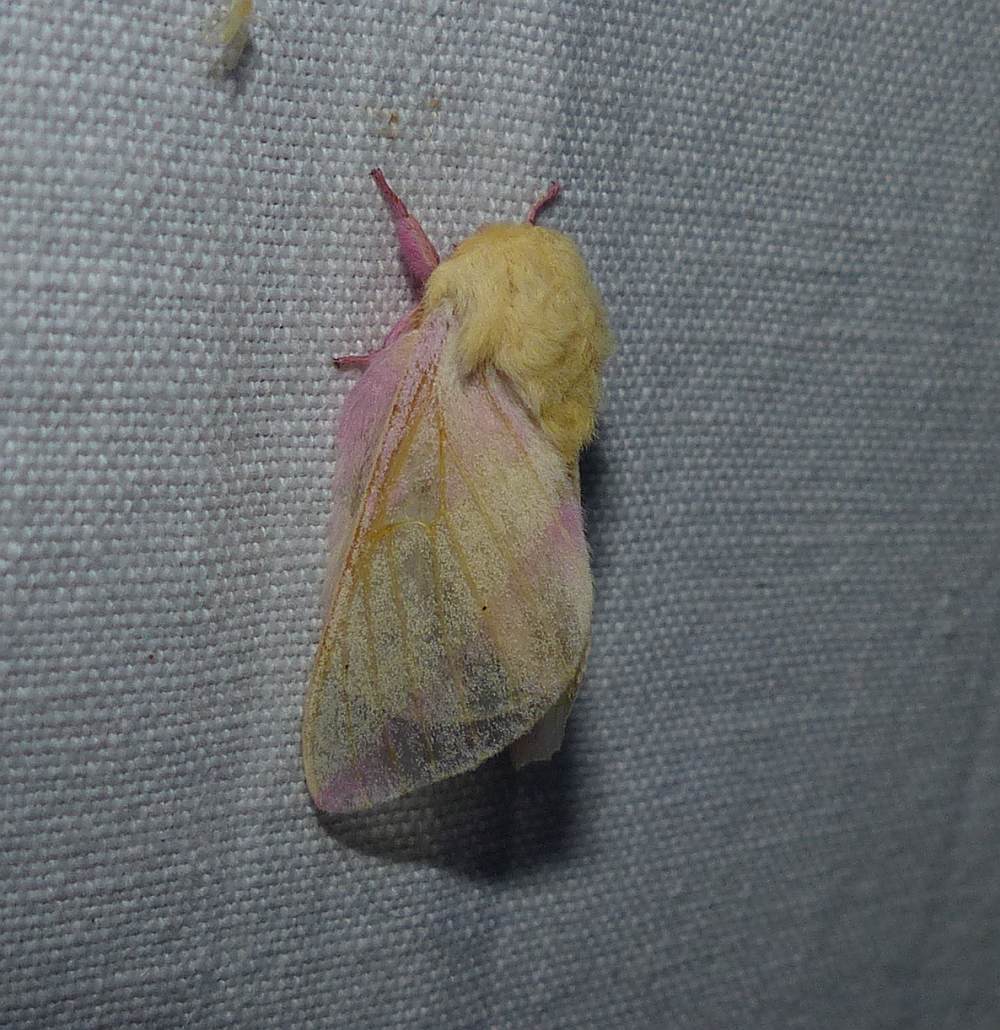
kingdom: Animalia
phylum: Arthropoda
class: Insecta
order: Lepidoptera
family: Saturniidae
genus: Dryocampa
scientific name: Dryocampa rubicunda
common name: Rosy maple moth
